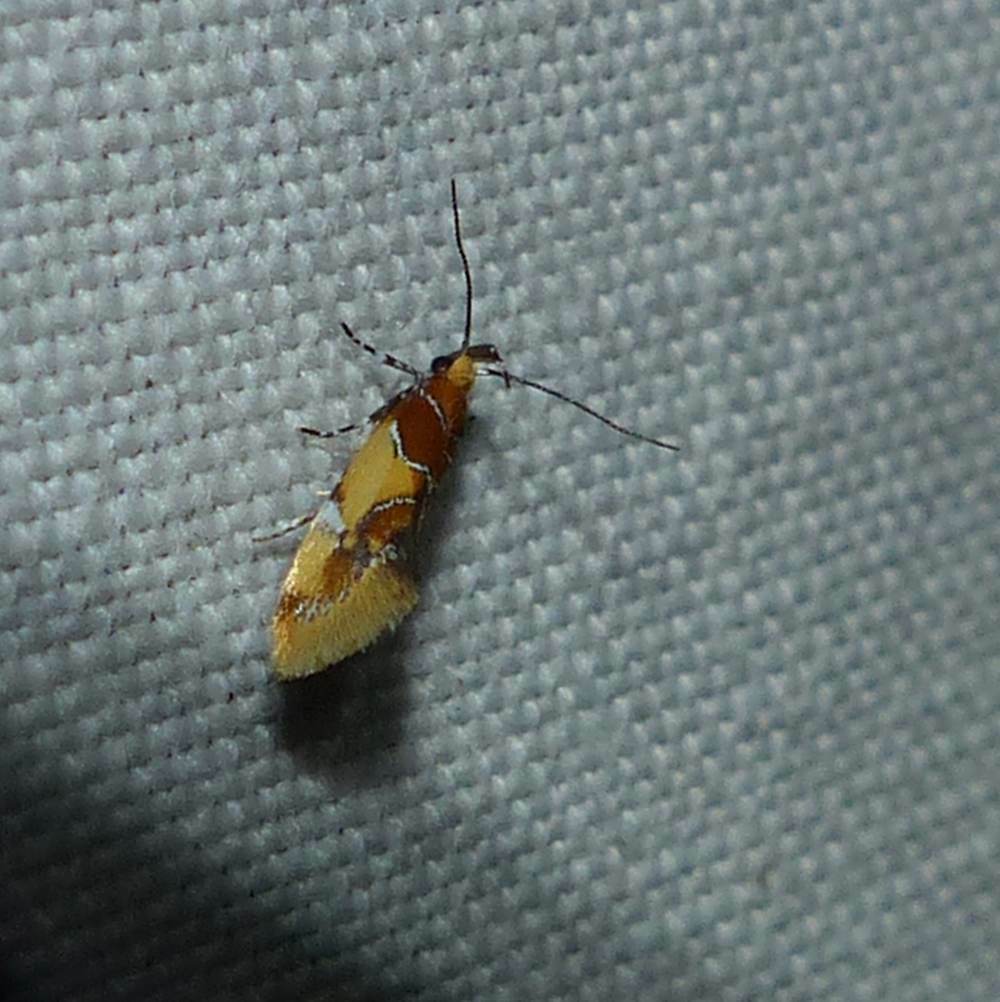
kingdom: Animalia
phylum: Arthropoda
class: Insecta
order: Lepidoptera
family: Oecophoridae
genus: Callima
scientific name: Callima argenticinctella
